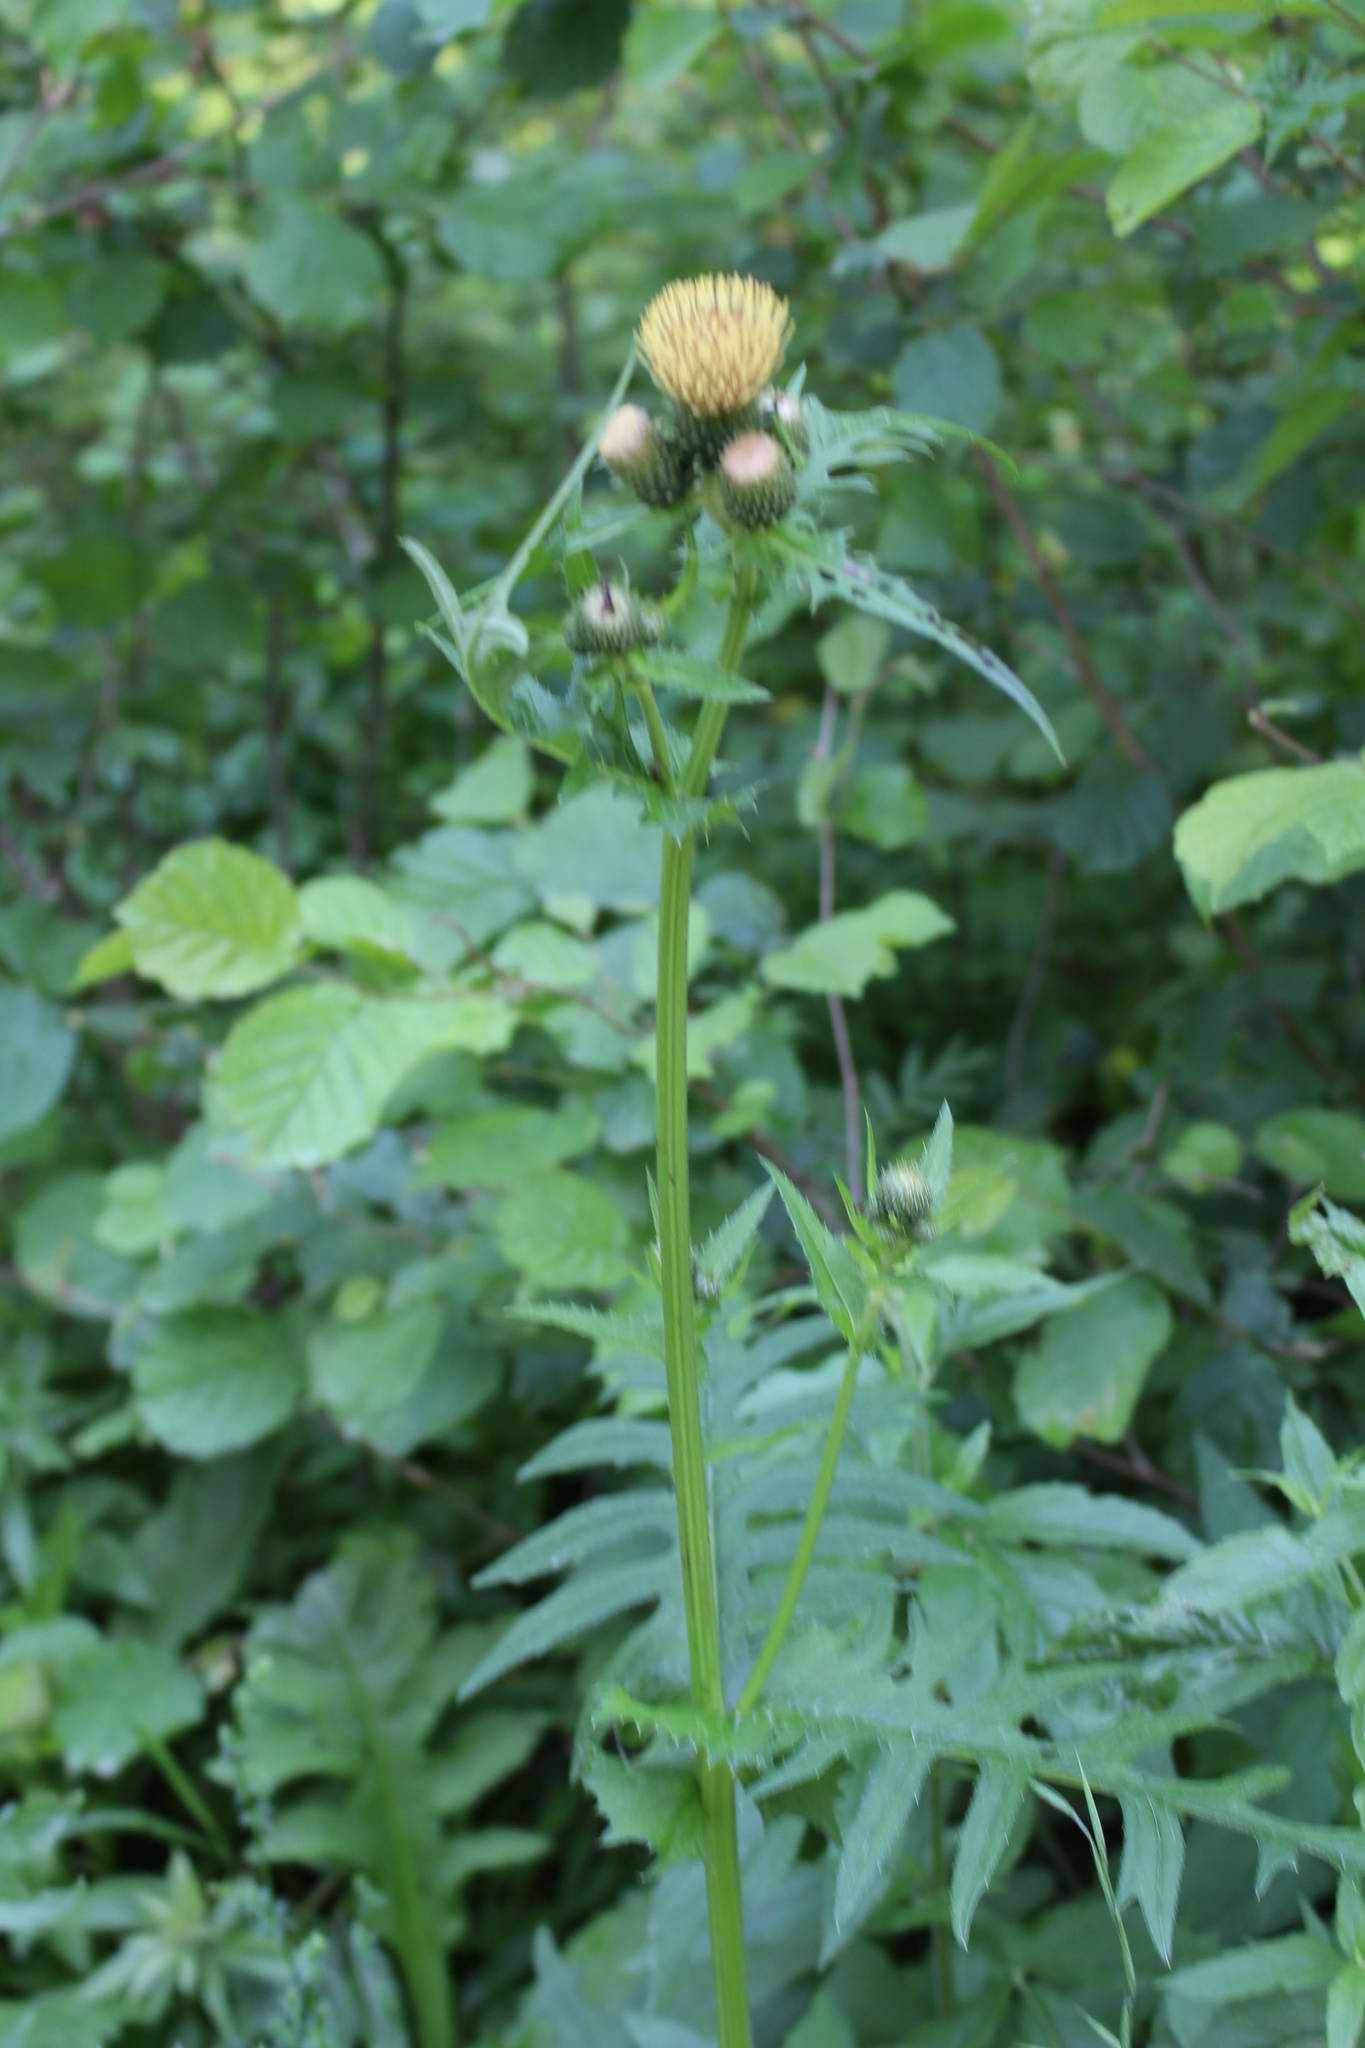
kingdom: Plantae
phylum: Tracheophyta
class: Magnoliopsida
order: Asterales
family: Asteraceae
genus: Cirsium
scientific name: Cirsium oleraceum
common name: Cabbage thistle
